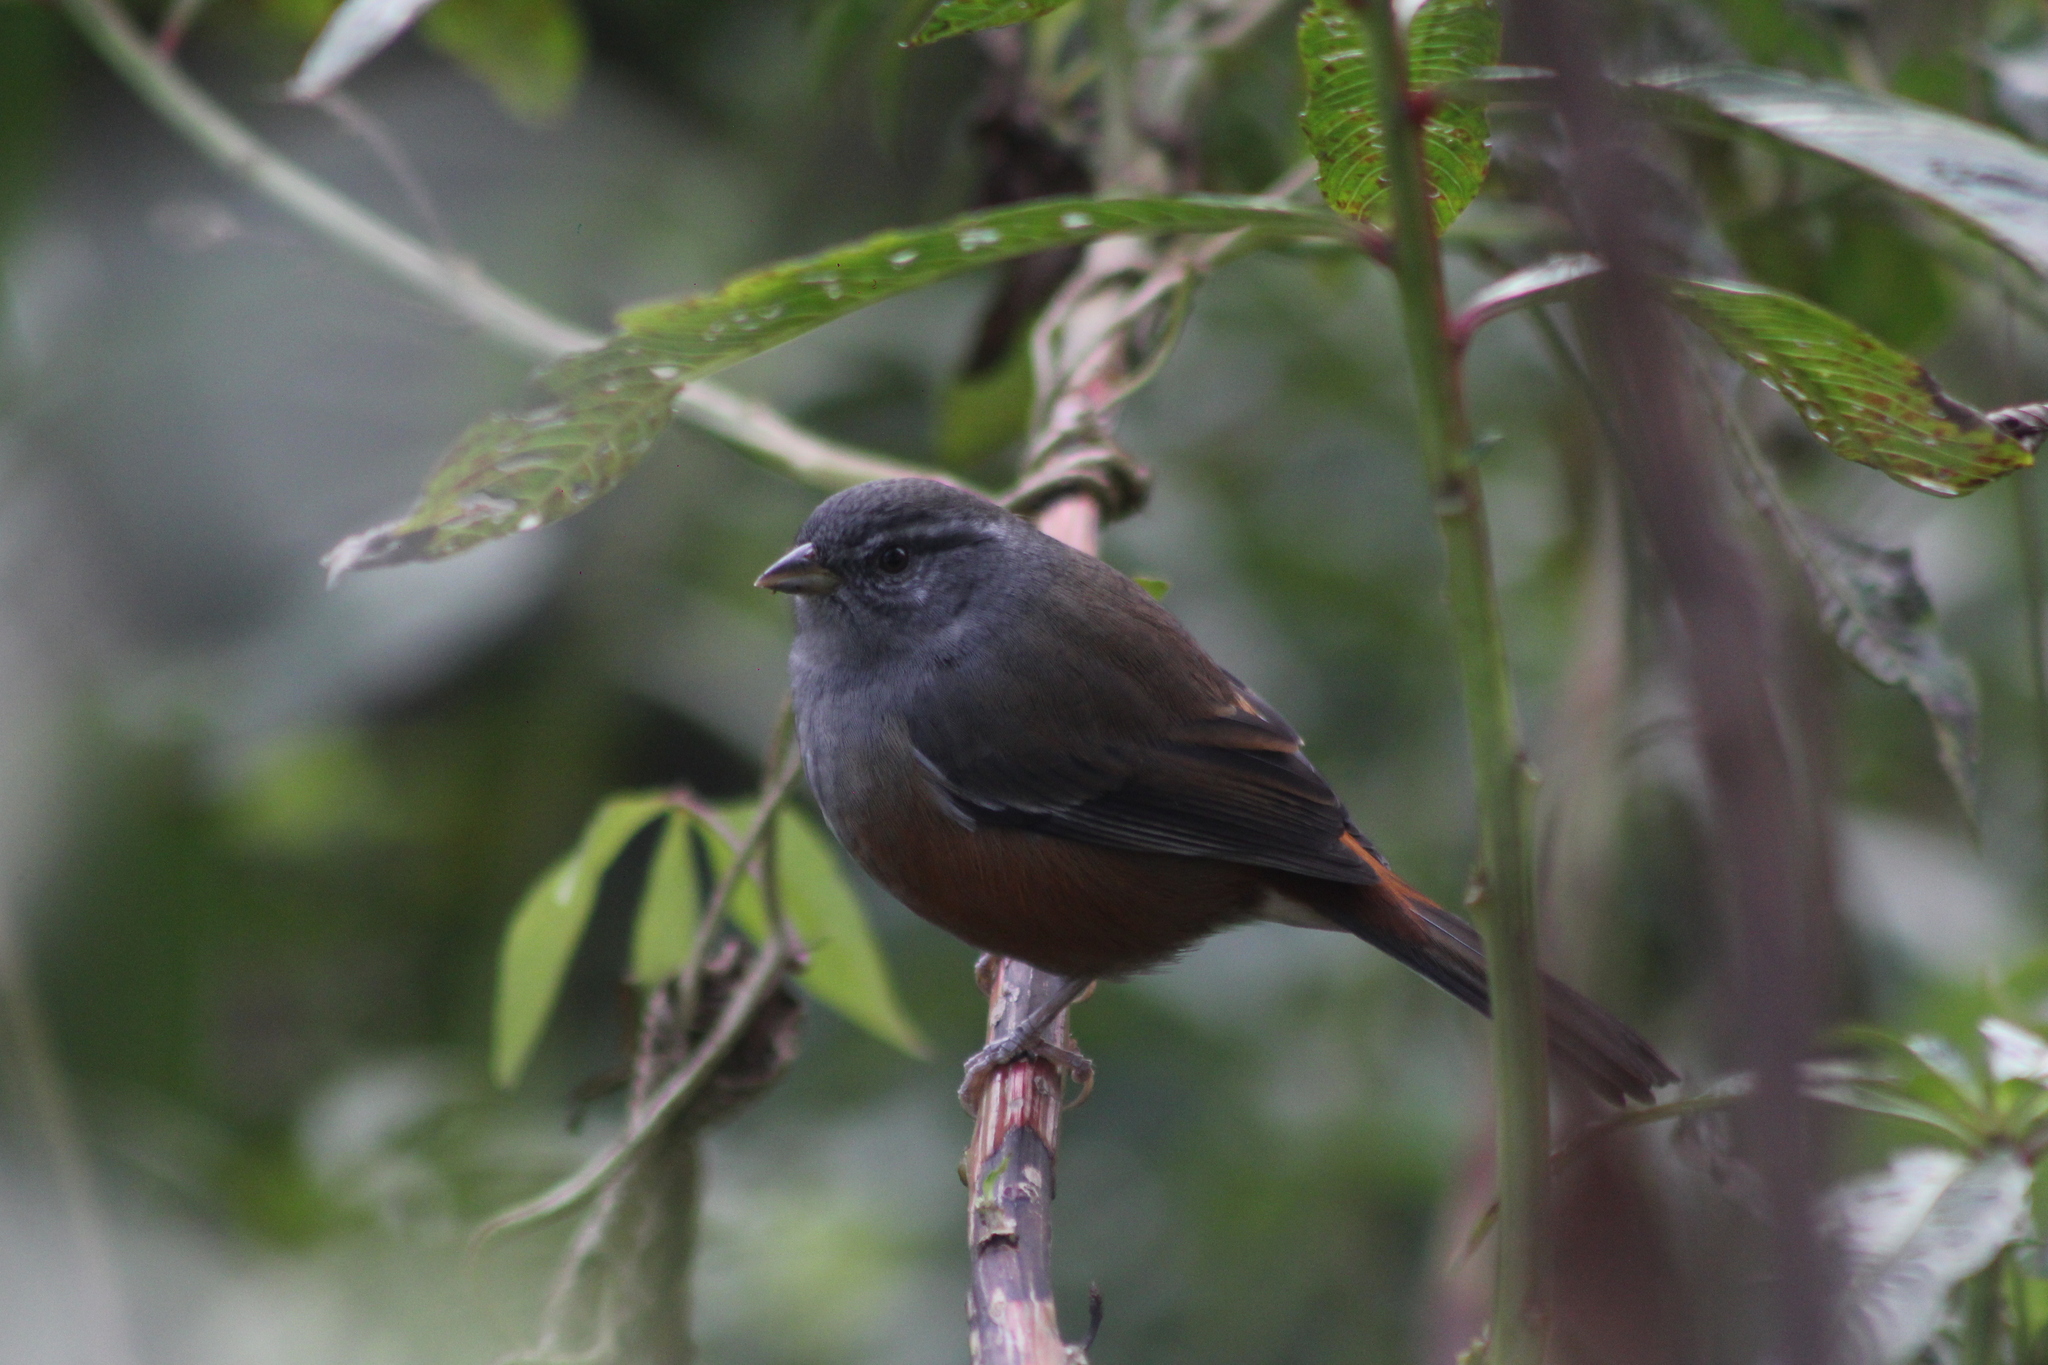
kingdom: Animalia
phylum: Chordata
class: Aves
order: Passeriformes
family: Thraupidae
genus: Microspingus
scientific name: Microspingus cabanisi
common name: Gray-throated warbling-finch
